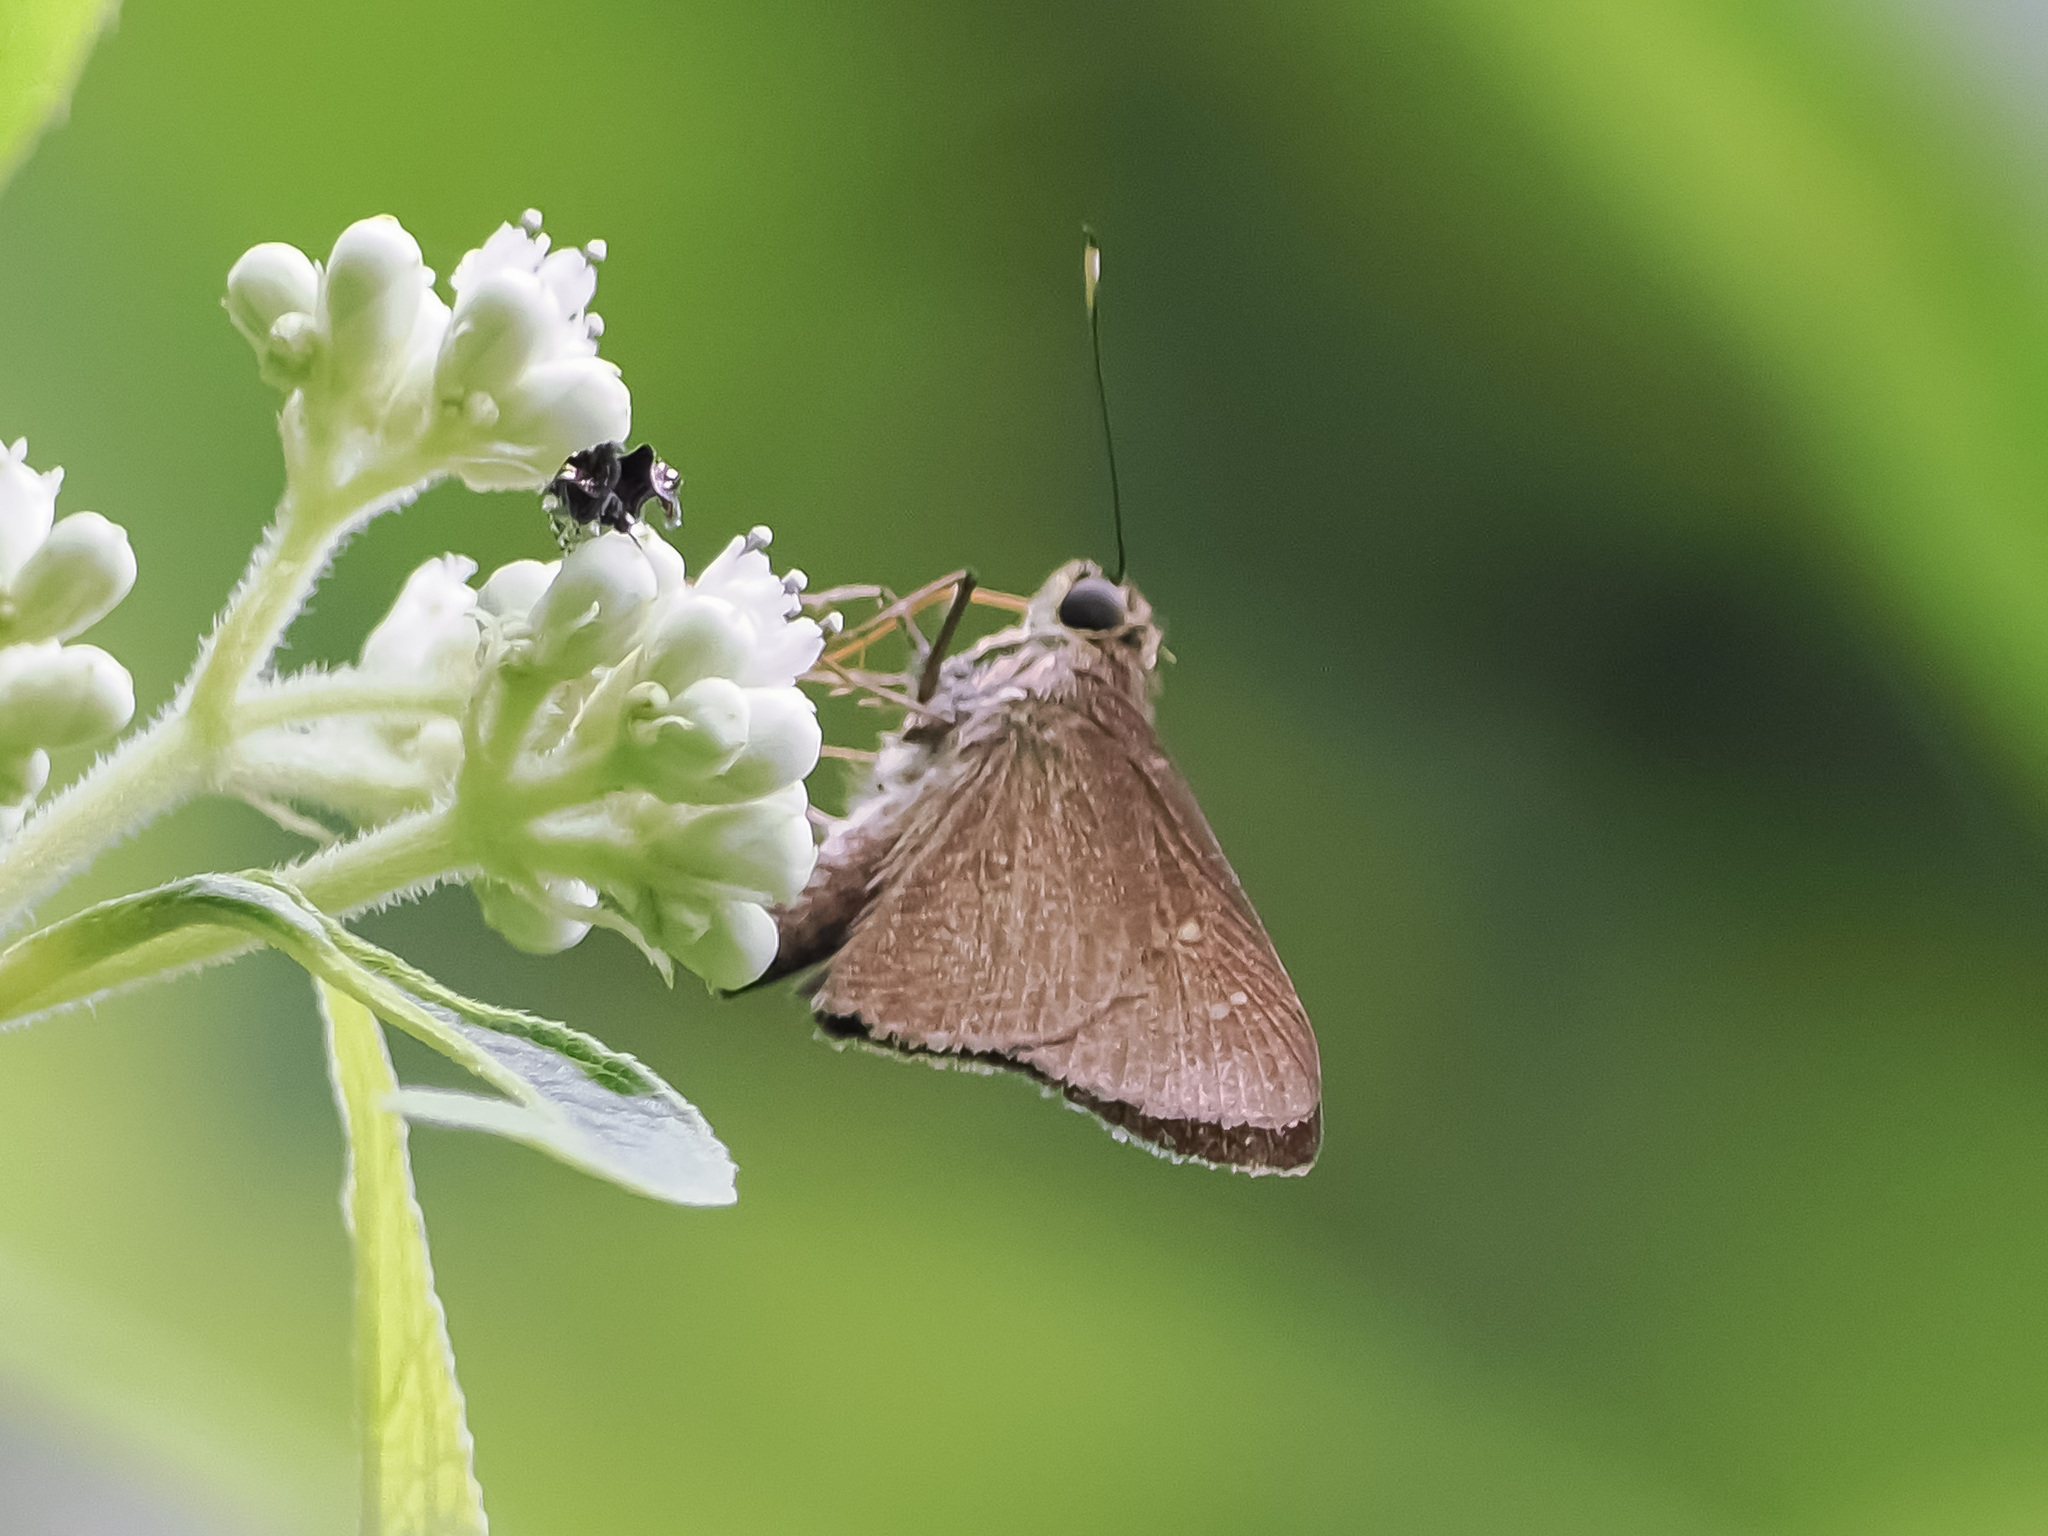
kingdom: Animalia
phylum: Arthropoda
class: Insecta
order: Lepidoptera
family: Hesperiidae
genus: Isma
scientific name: Isma
